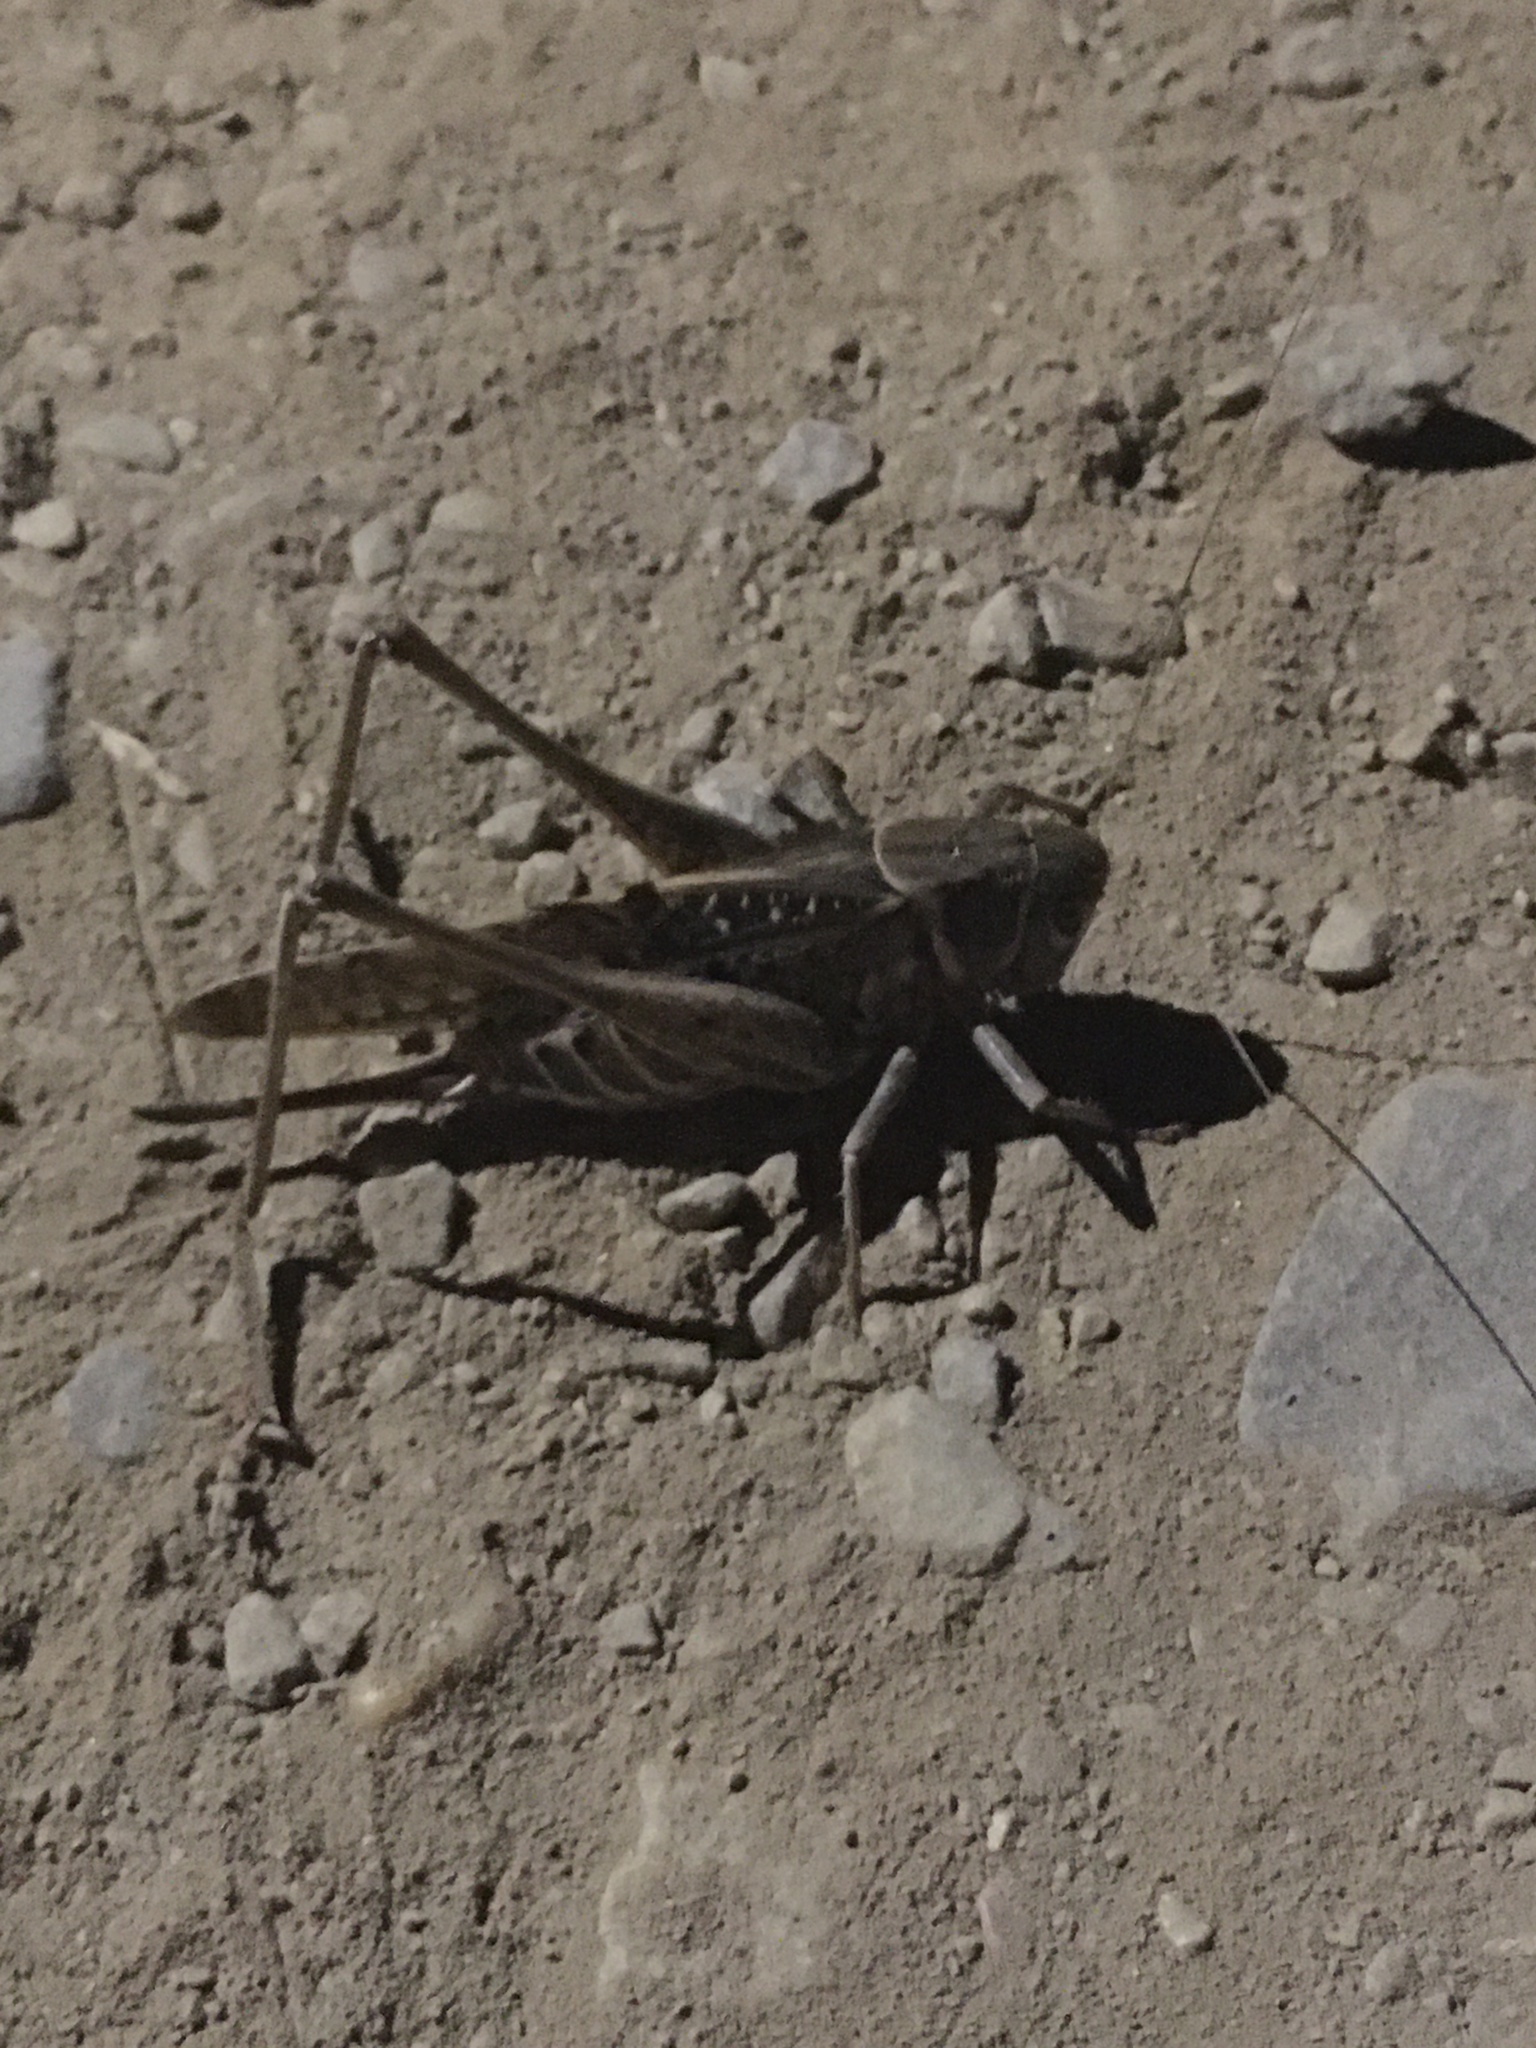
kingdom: Animalia
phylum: Arthropoda
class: Insecta
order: Orthoptera
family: Tettigoniidae
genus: Decticus
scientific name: Decticus albifrons
